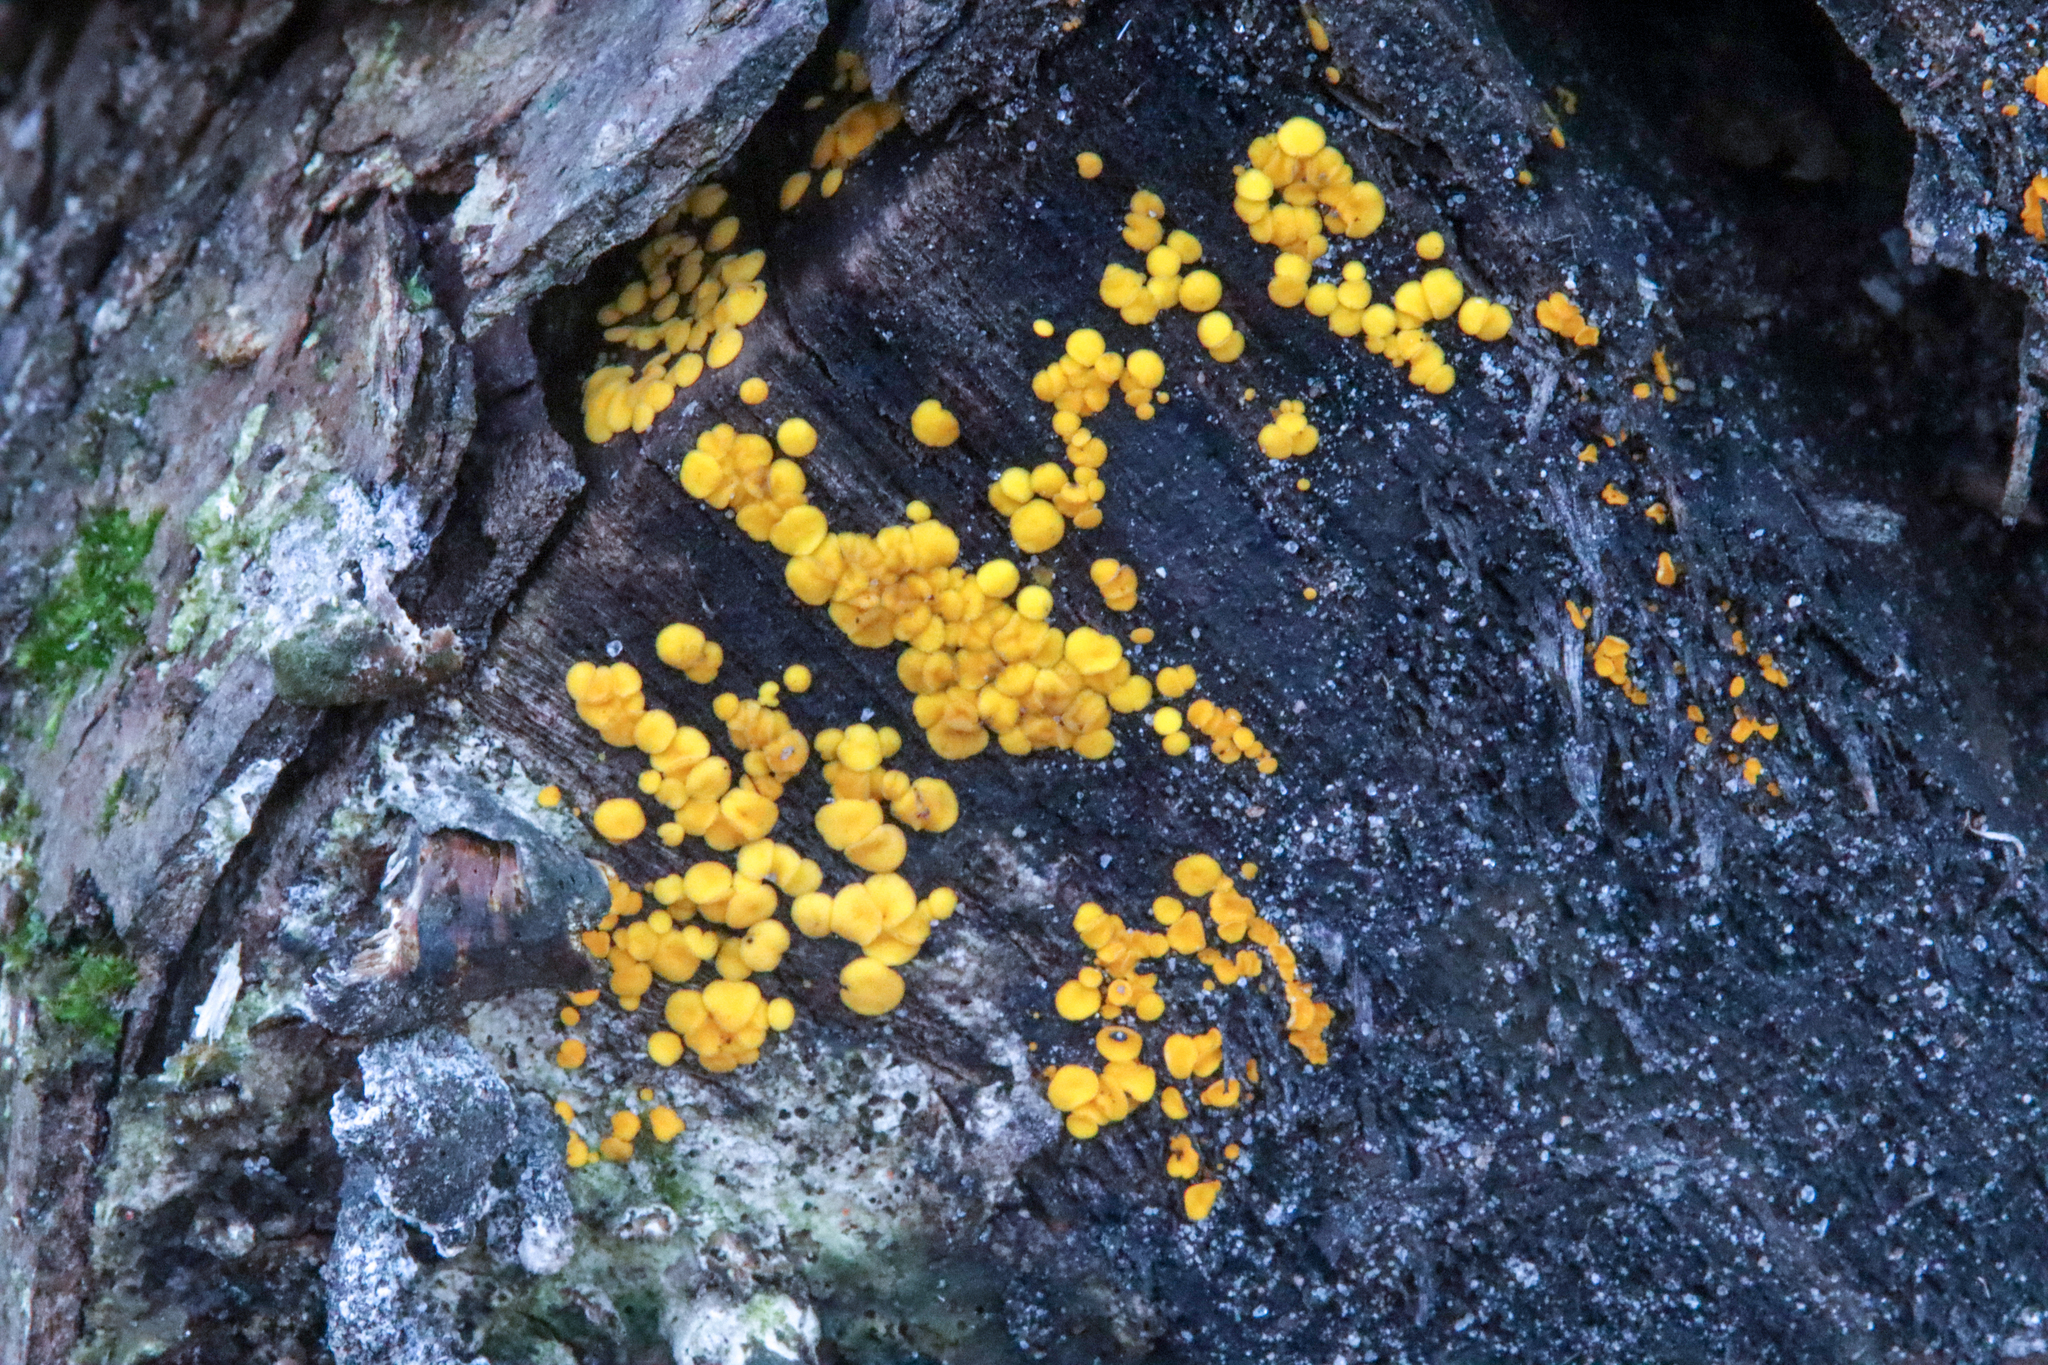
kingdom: Fungi
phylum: Ascomycota
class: Leotiomycetes
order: Helotiales
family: Pezizellaceae
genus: Calycina
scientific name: Calycina citrina
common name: Yellow fairy cups
